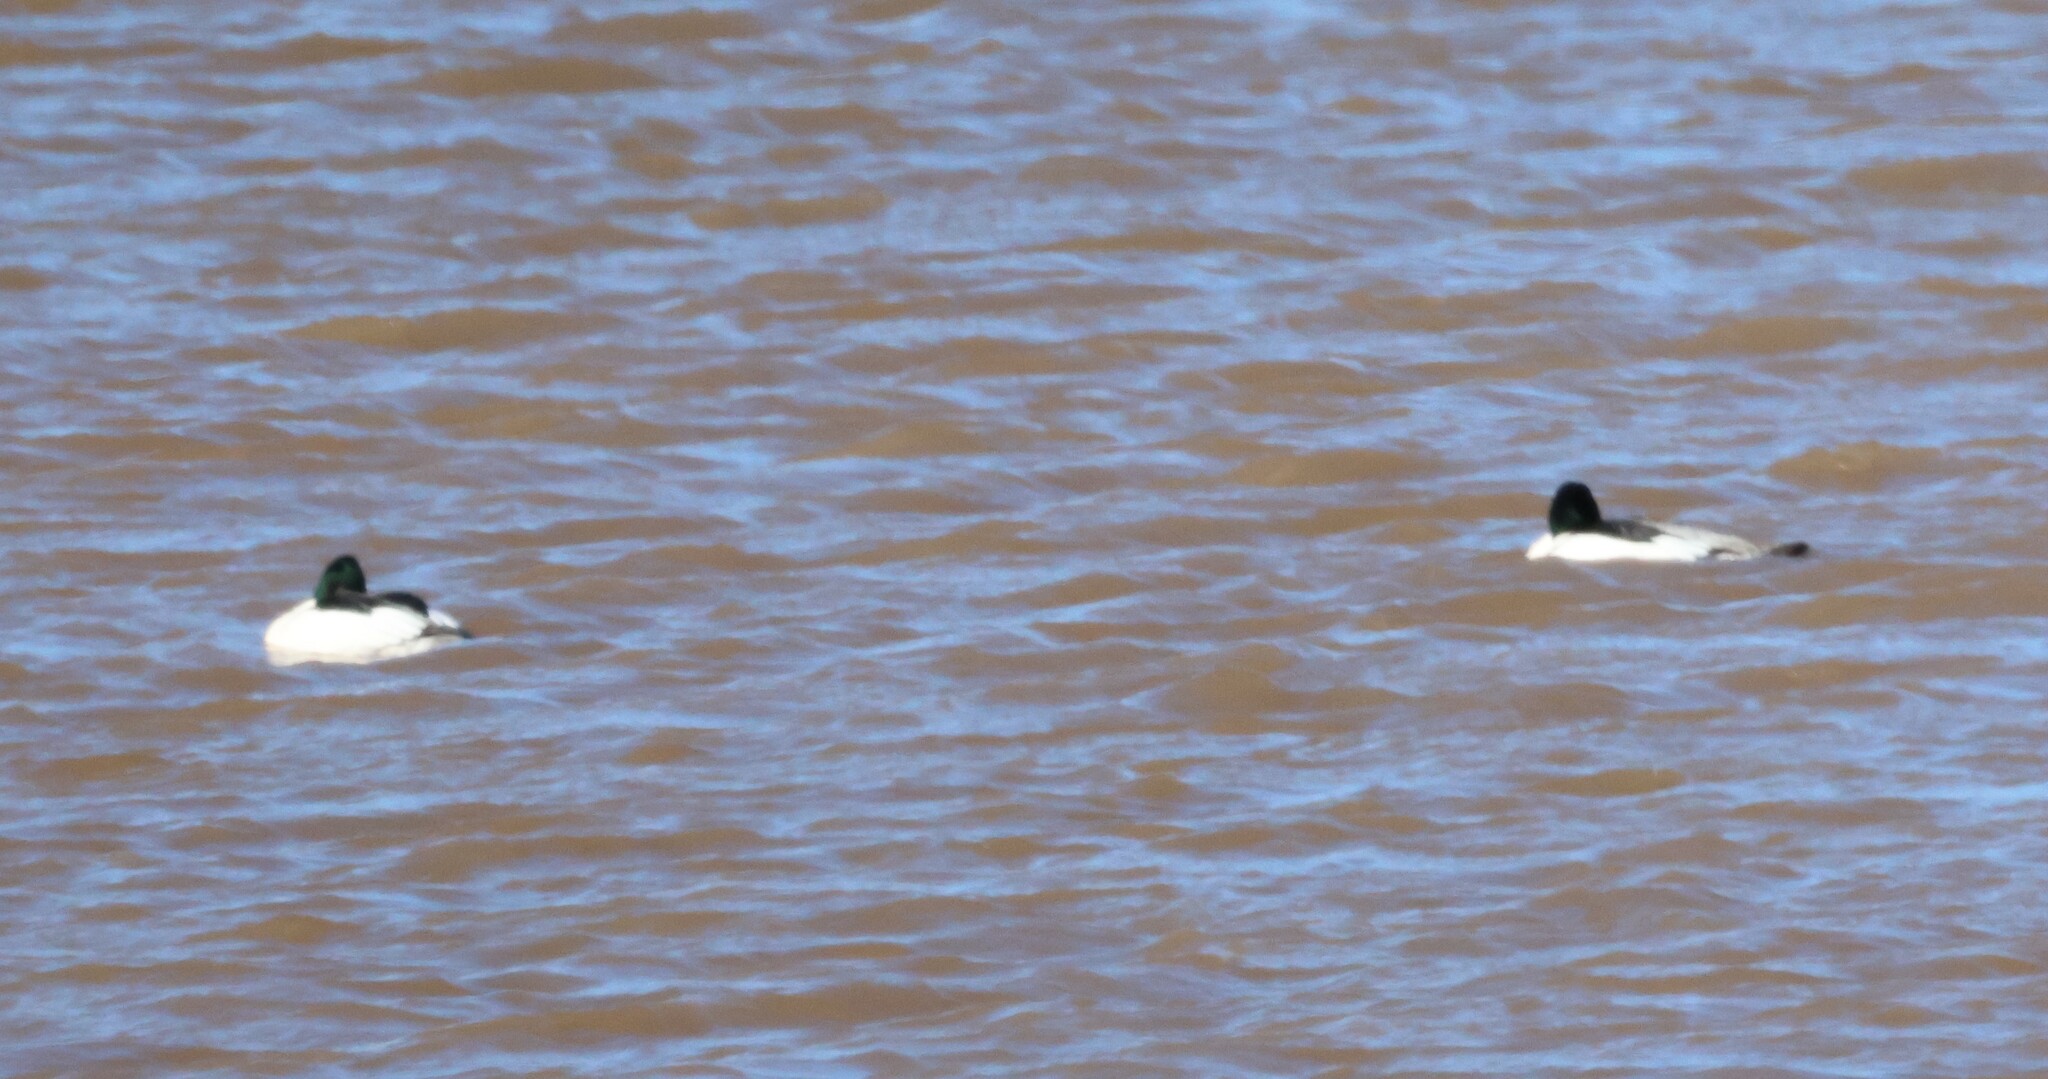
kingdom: Animalia
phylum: Chordata
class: Aves
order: Anseriformes
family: Anatidae
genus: Mergus
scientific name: Mergus merganser
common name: Common merganser
